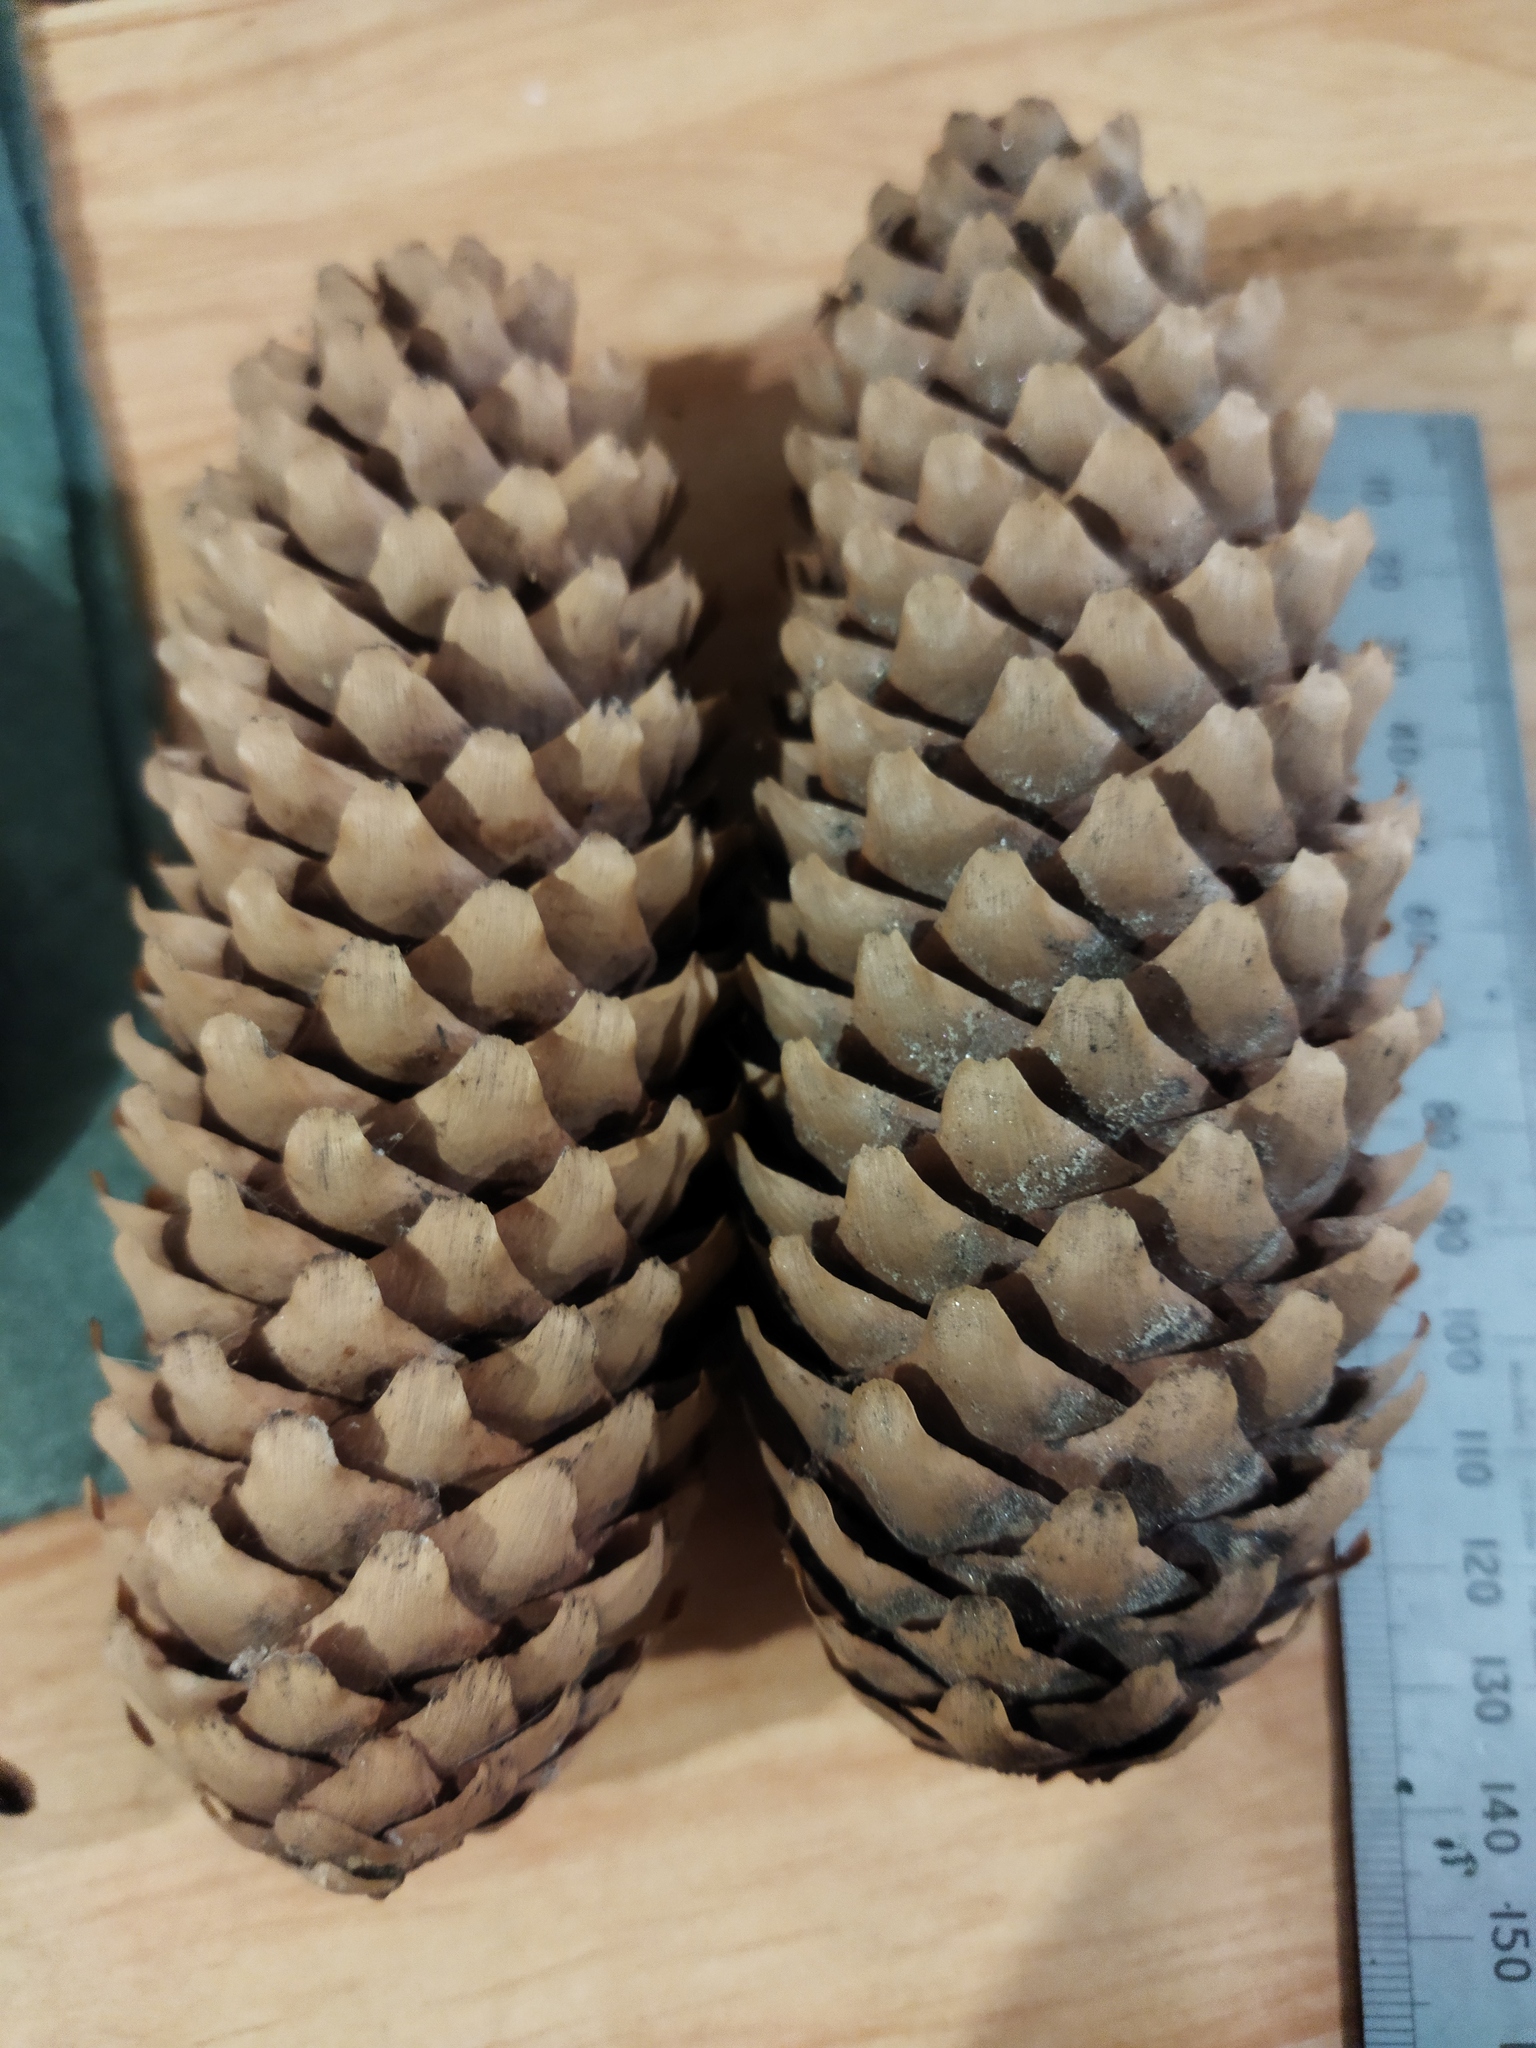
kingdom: Plantae
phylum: Tracheophyta
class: Pinopsida
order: Pinales
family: Pinaceae
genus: Picea
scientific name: Picea abies
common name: Norway spruce
